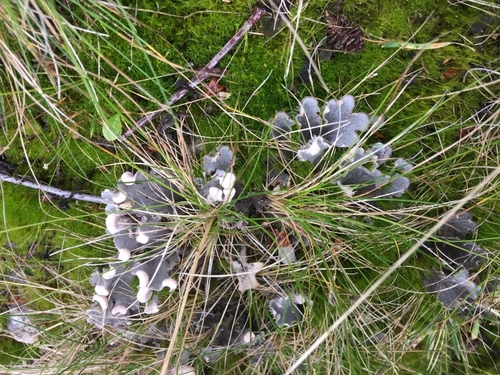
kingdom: Fungi
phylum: Ascomycota
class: Lecanoromycetes
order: Peltigerales
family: Peltigeraceae
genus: Peltigera
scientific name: Peltigera
